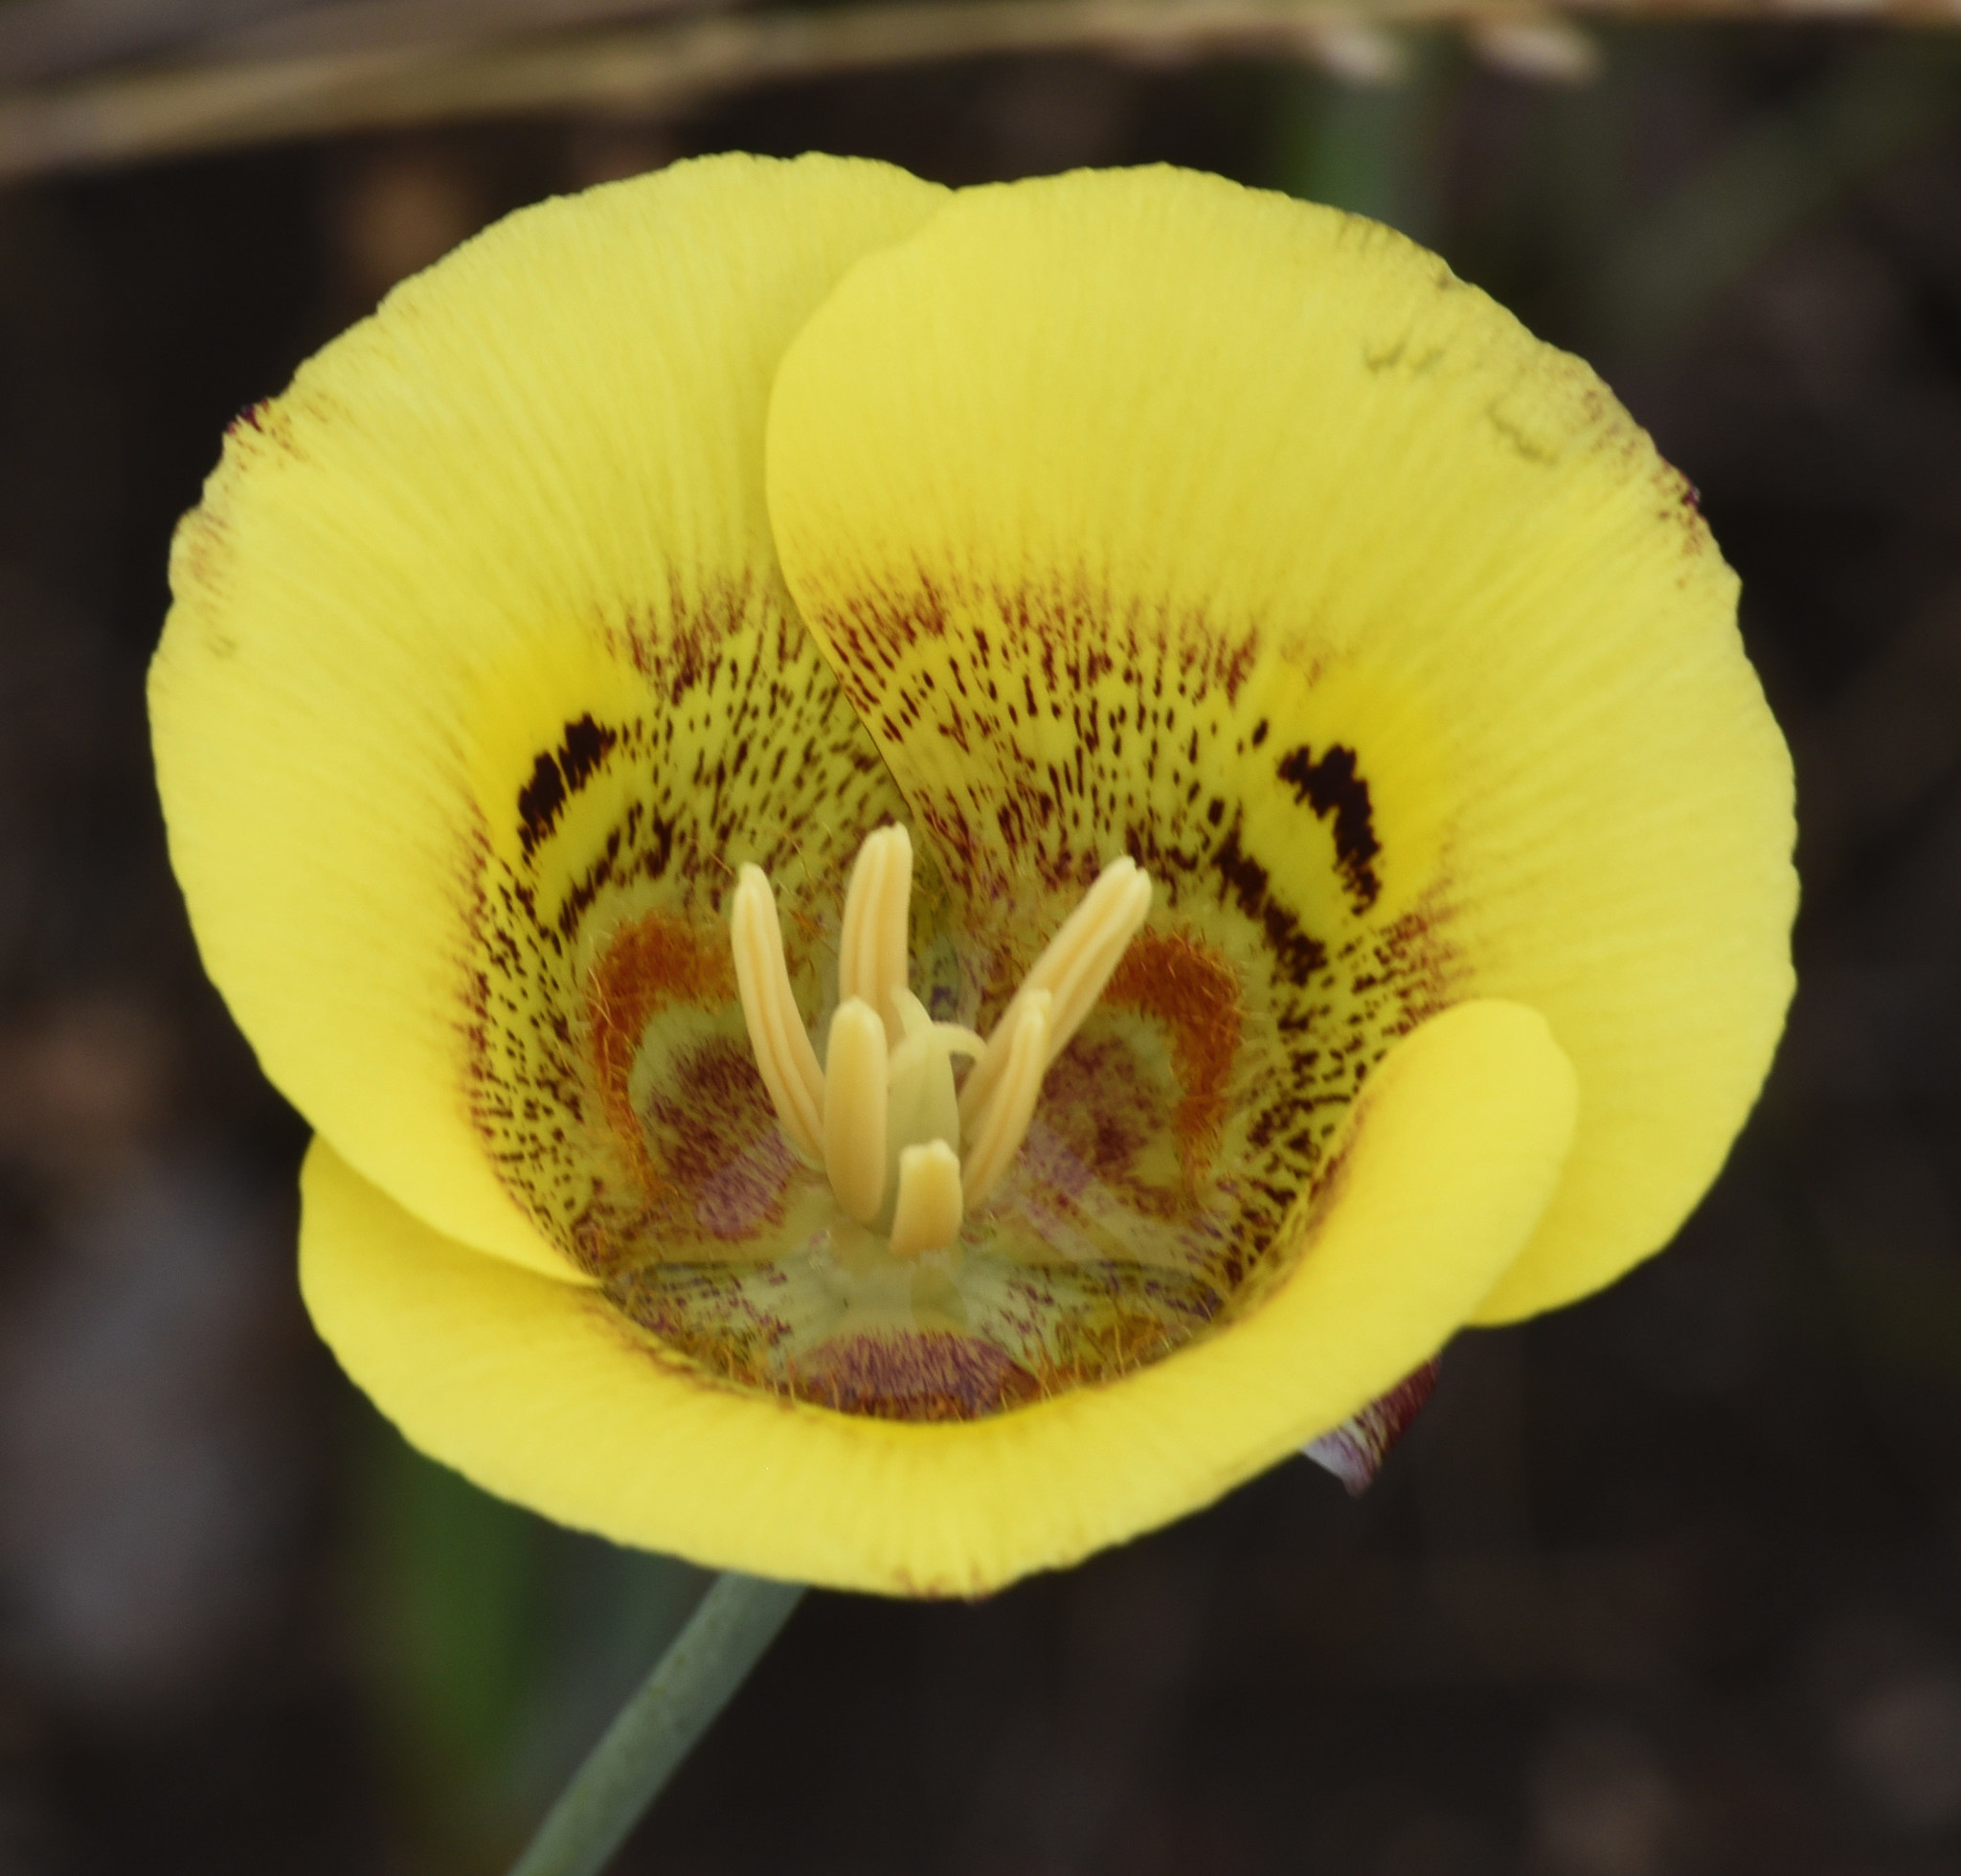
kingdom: Plantae
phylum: Tracheophyta
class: Liliopsida
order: Liliales
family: Liliaceae
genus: Calochortus
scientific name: Calochortus superbus
